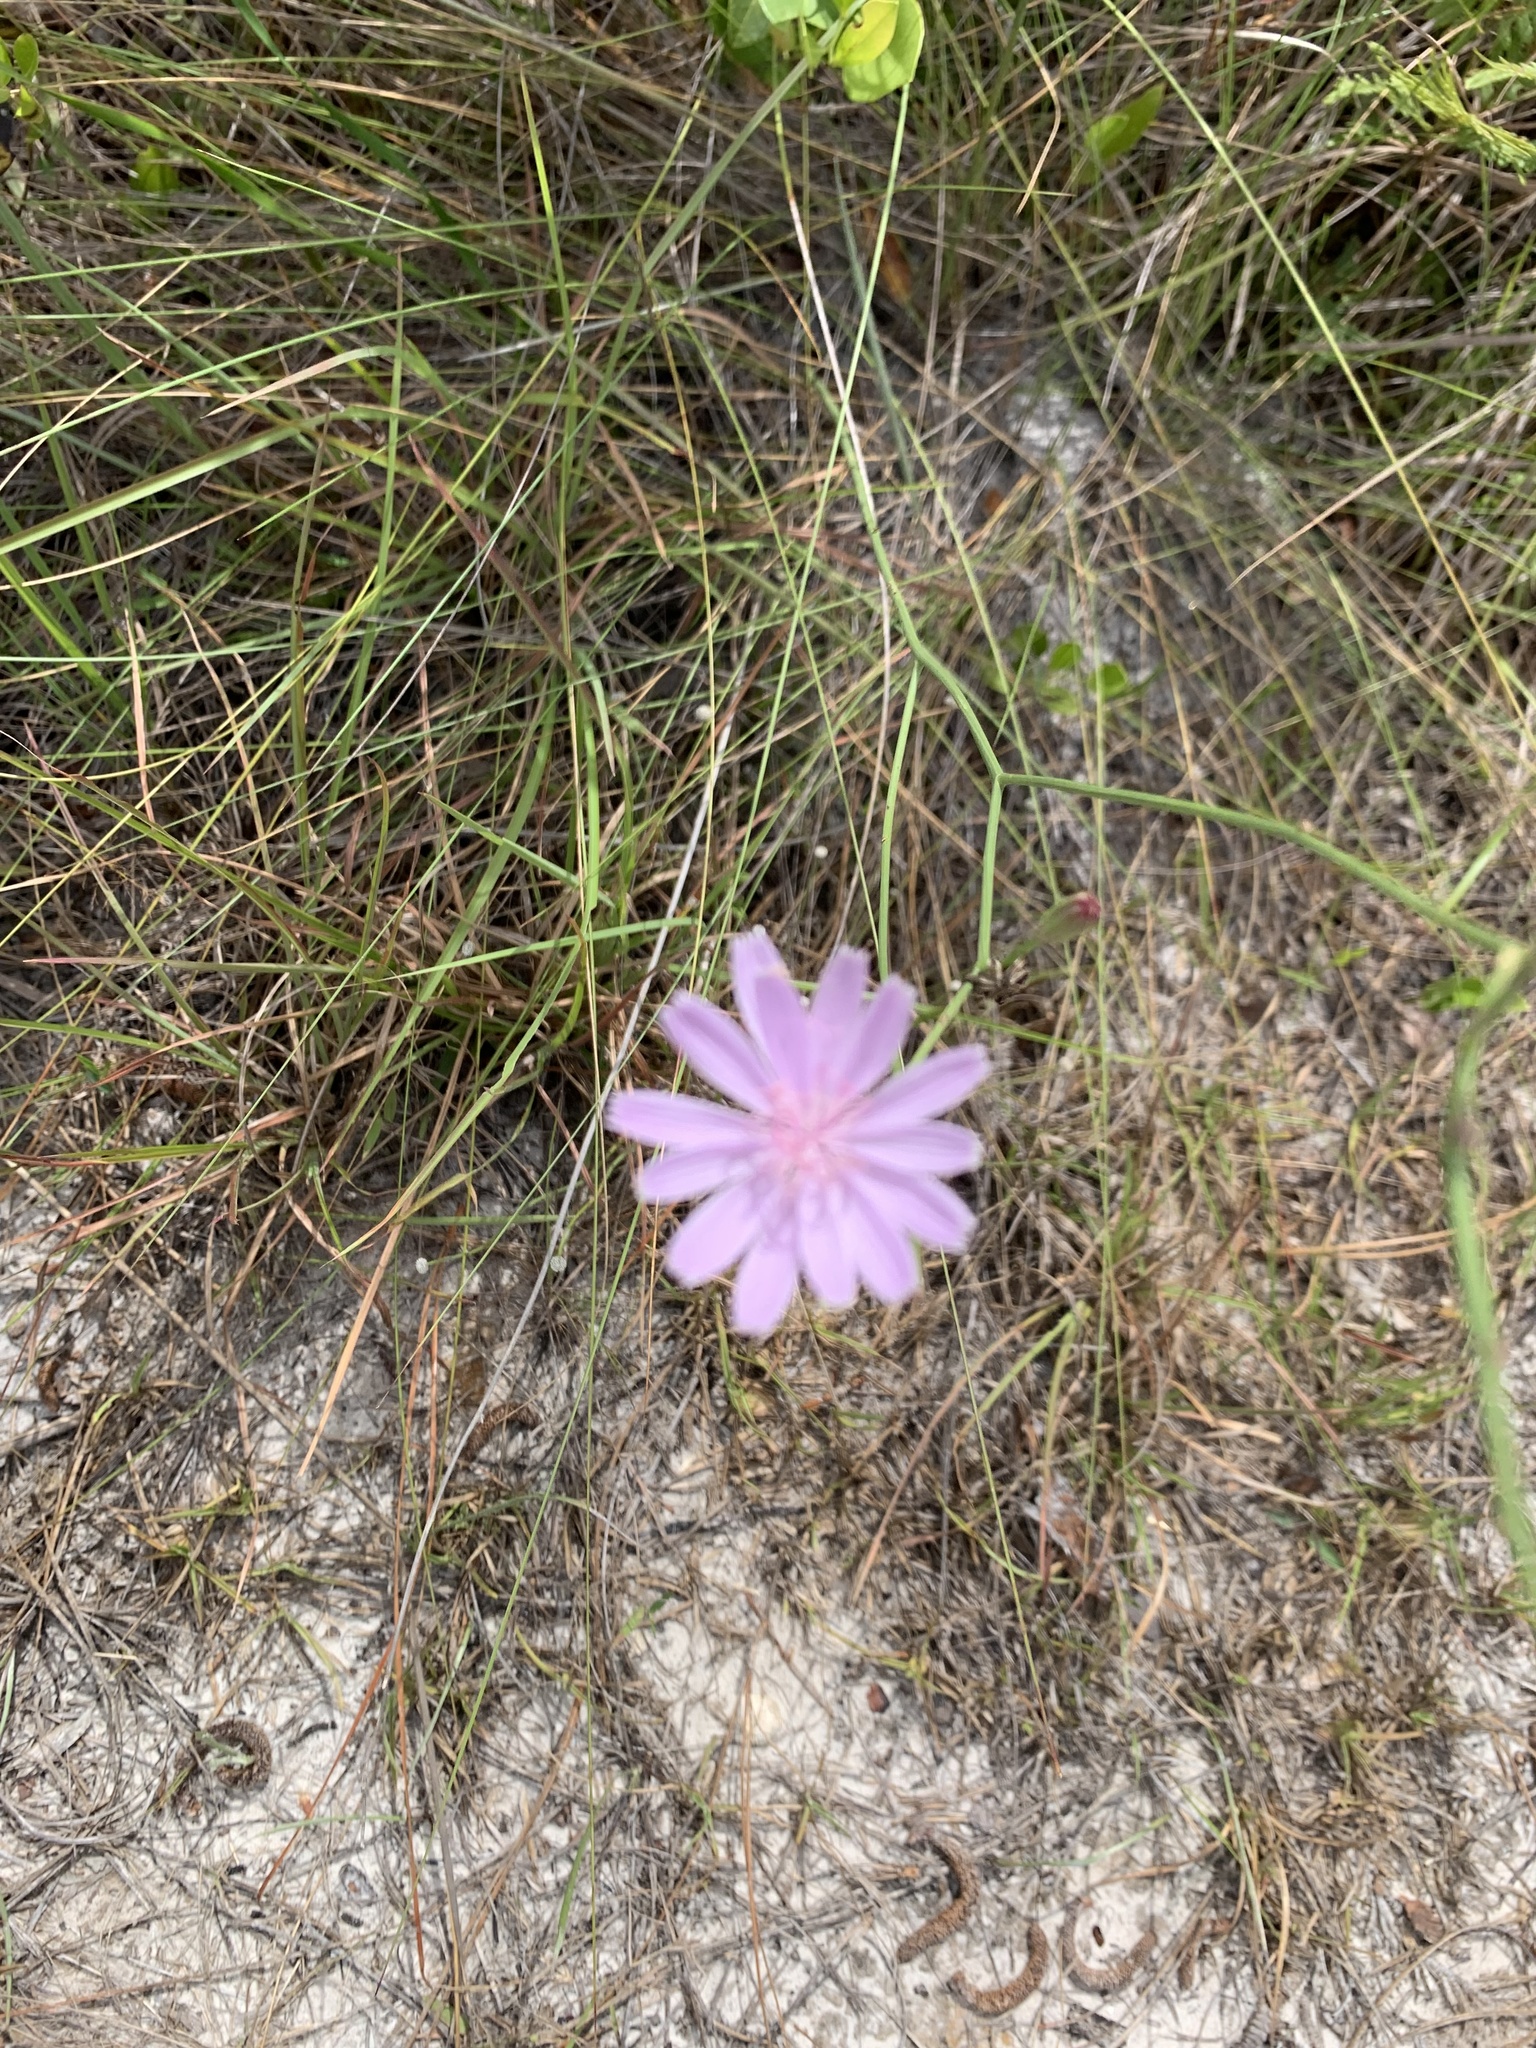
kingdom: Plantae
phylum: Tracheophyta
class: Magnoliopsida
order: Asterales
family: Asteraceae
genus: Lygodesmia
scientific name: Lygodesmia aphylla
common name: Rose-rush
